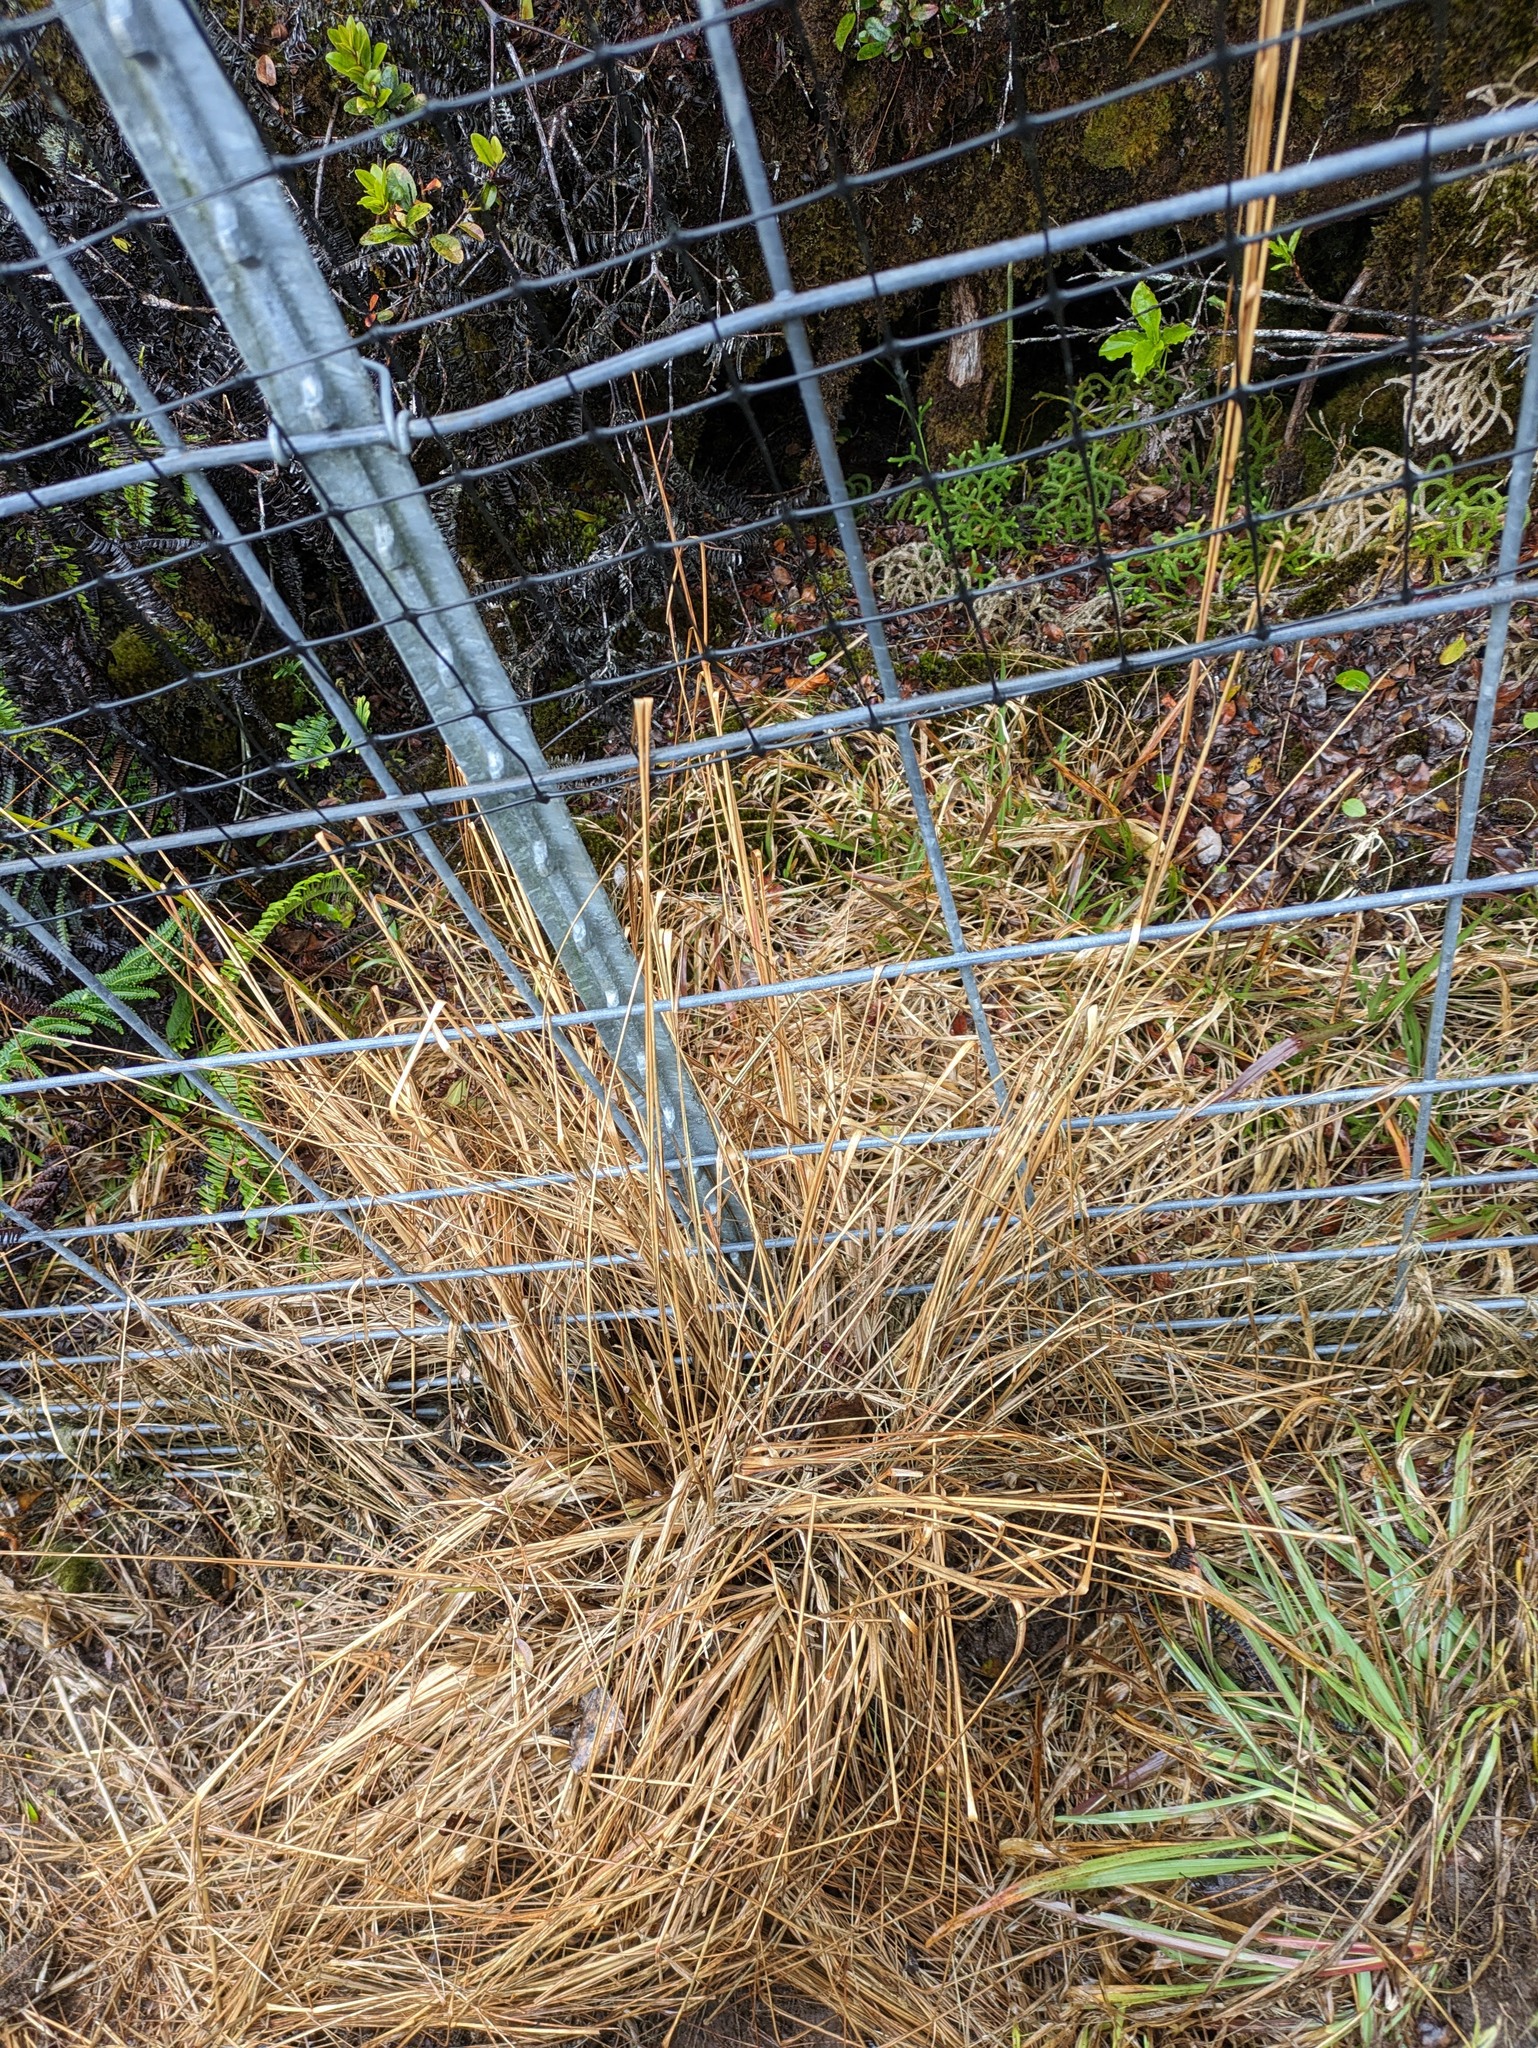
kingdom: Plantae
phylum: Tracheophyta
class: Liliopsida
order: Poales
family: Poaceae
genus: Andropogon
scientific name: Andropogon bicornis
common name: West indian foxtail grass
